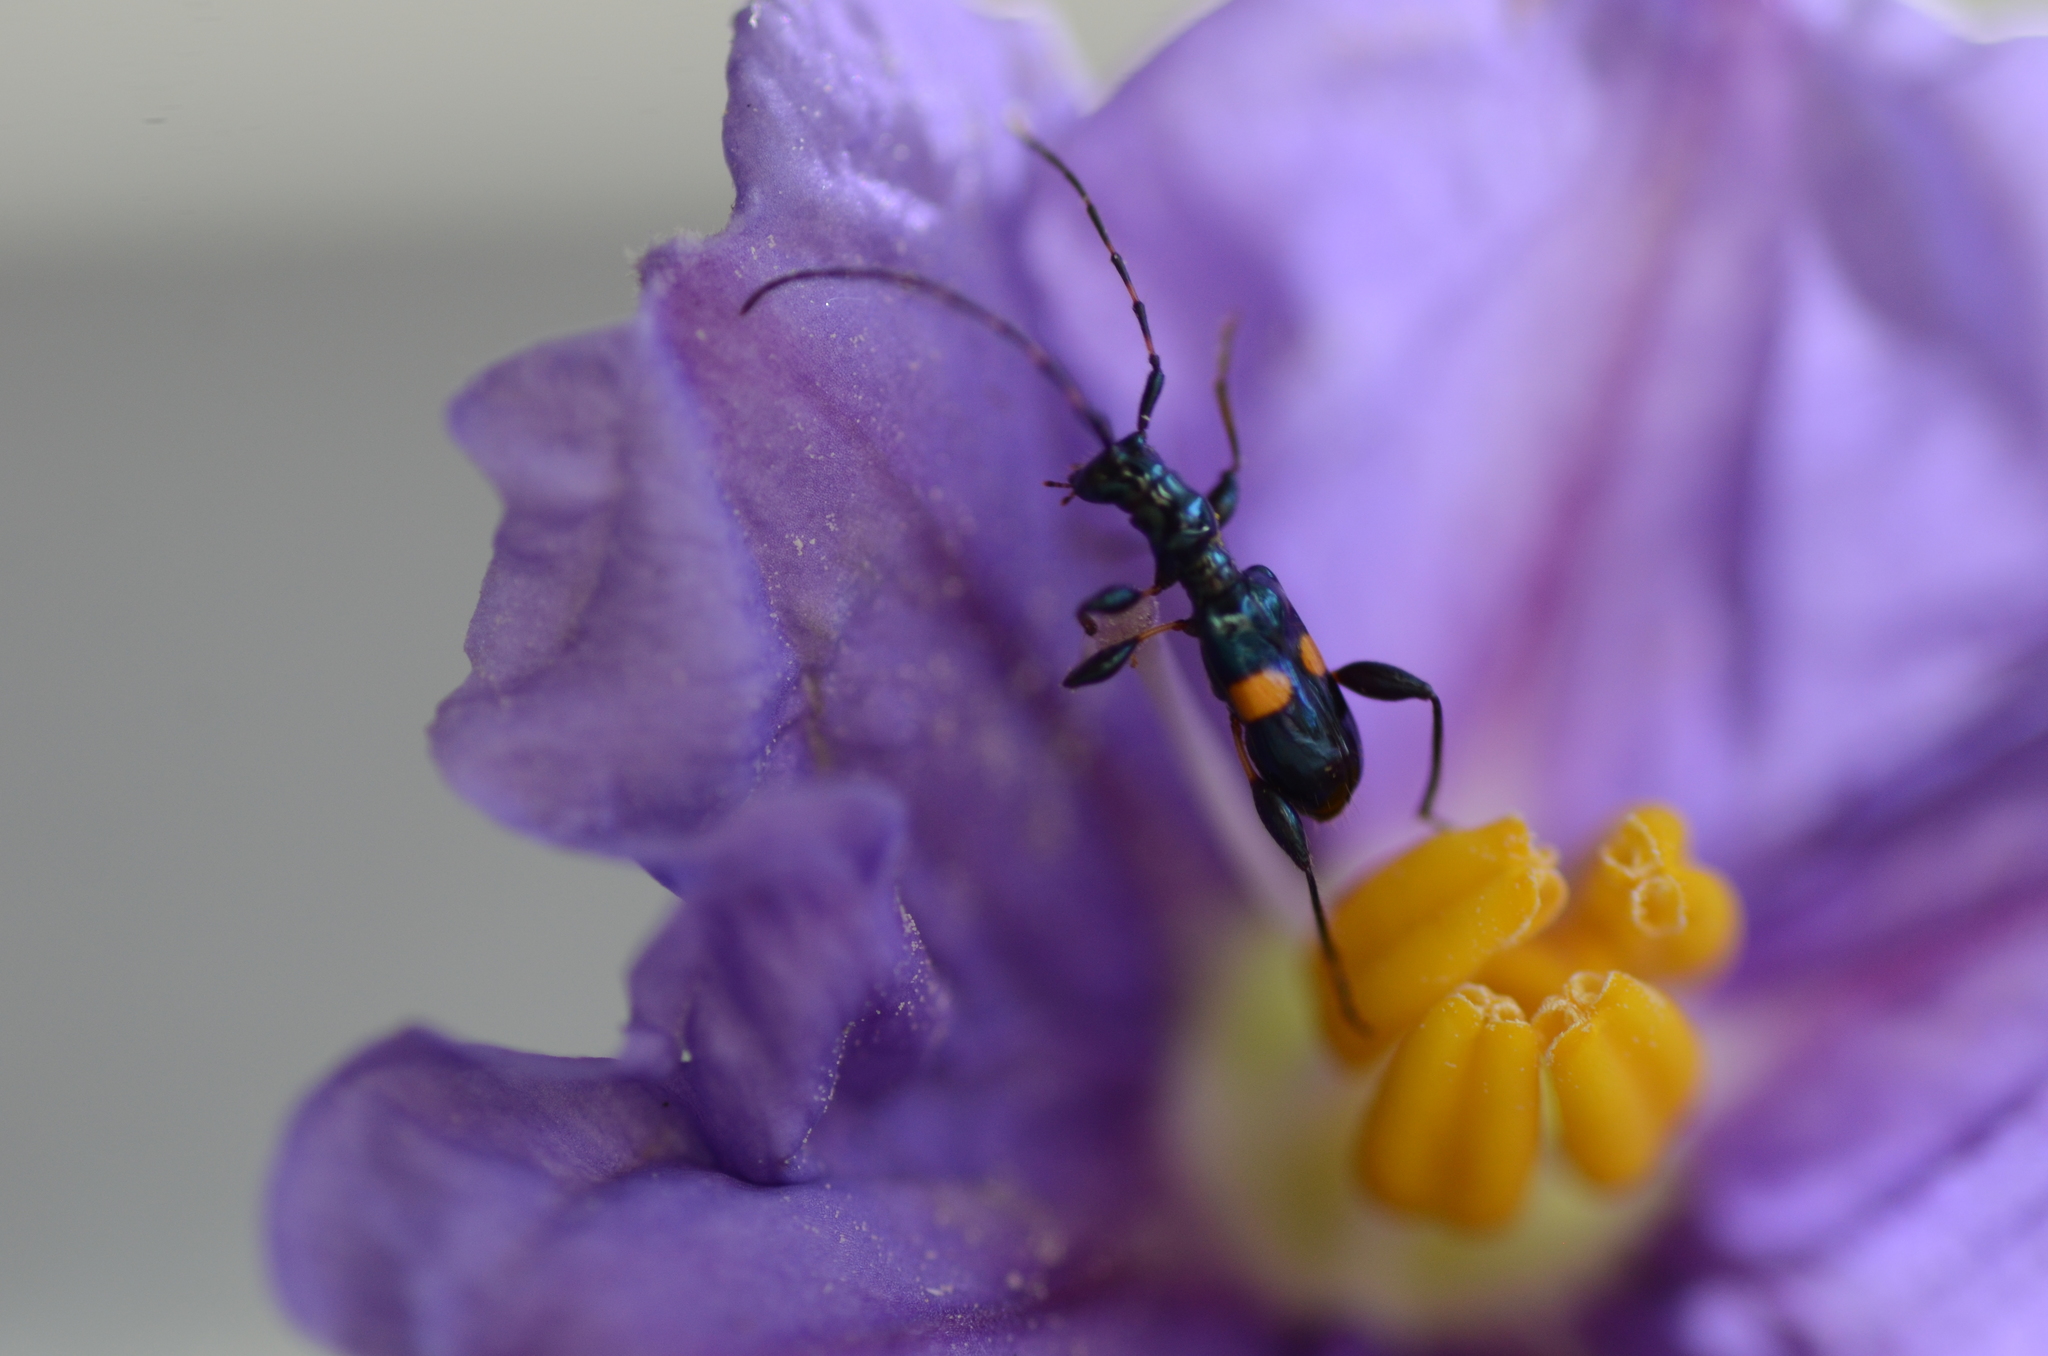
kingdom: Animalia
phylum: Arthropoda
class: Insecta
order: Coleoptera
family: Cerambycidae
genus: Zorion
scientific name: Zorion guttigerum
